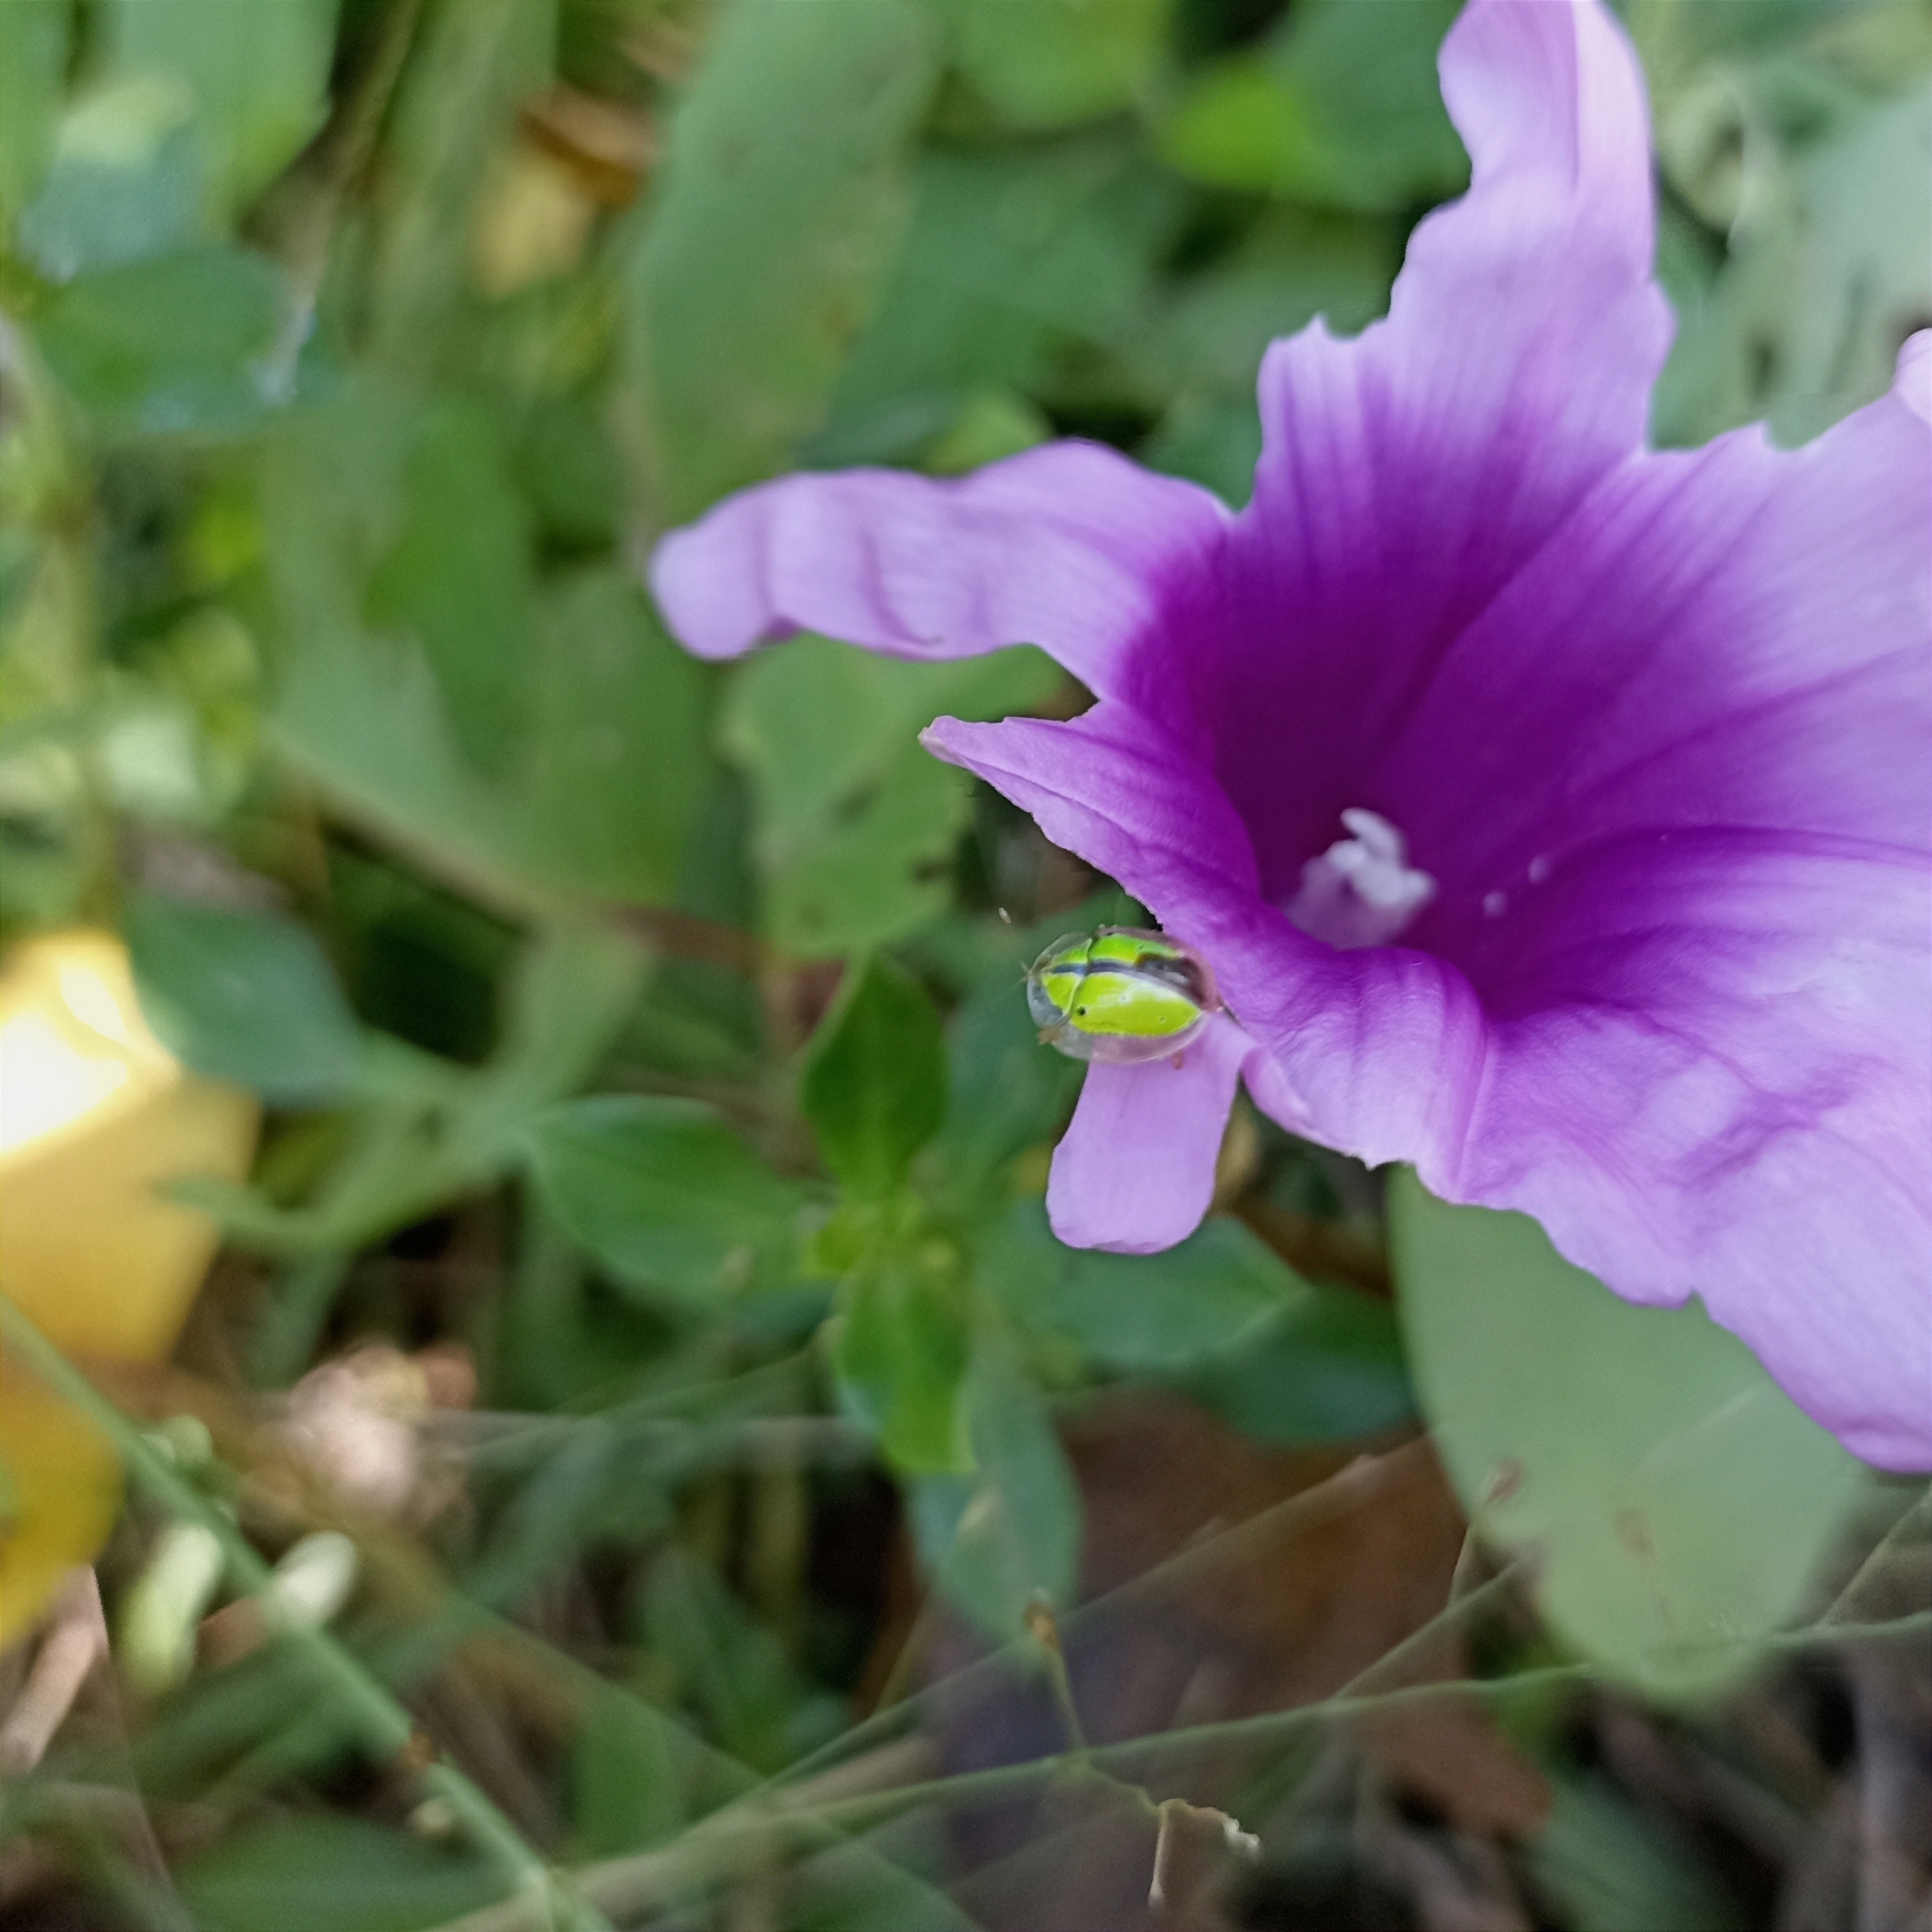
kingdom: Animalia
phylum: Arthropoda
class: Insecta
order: Coleoptera
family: Chrysomelidae
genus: Chiridopsis
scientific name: Chiridopsis bipunctata
